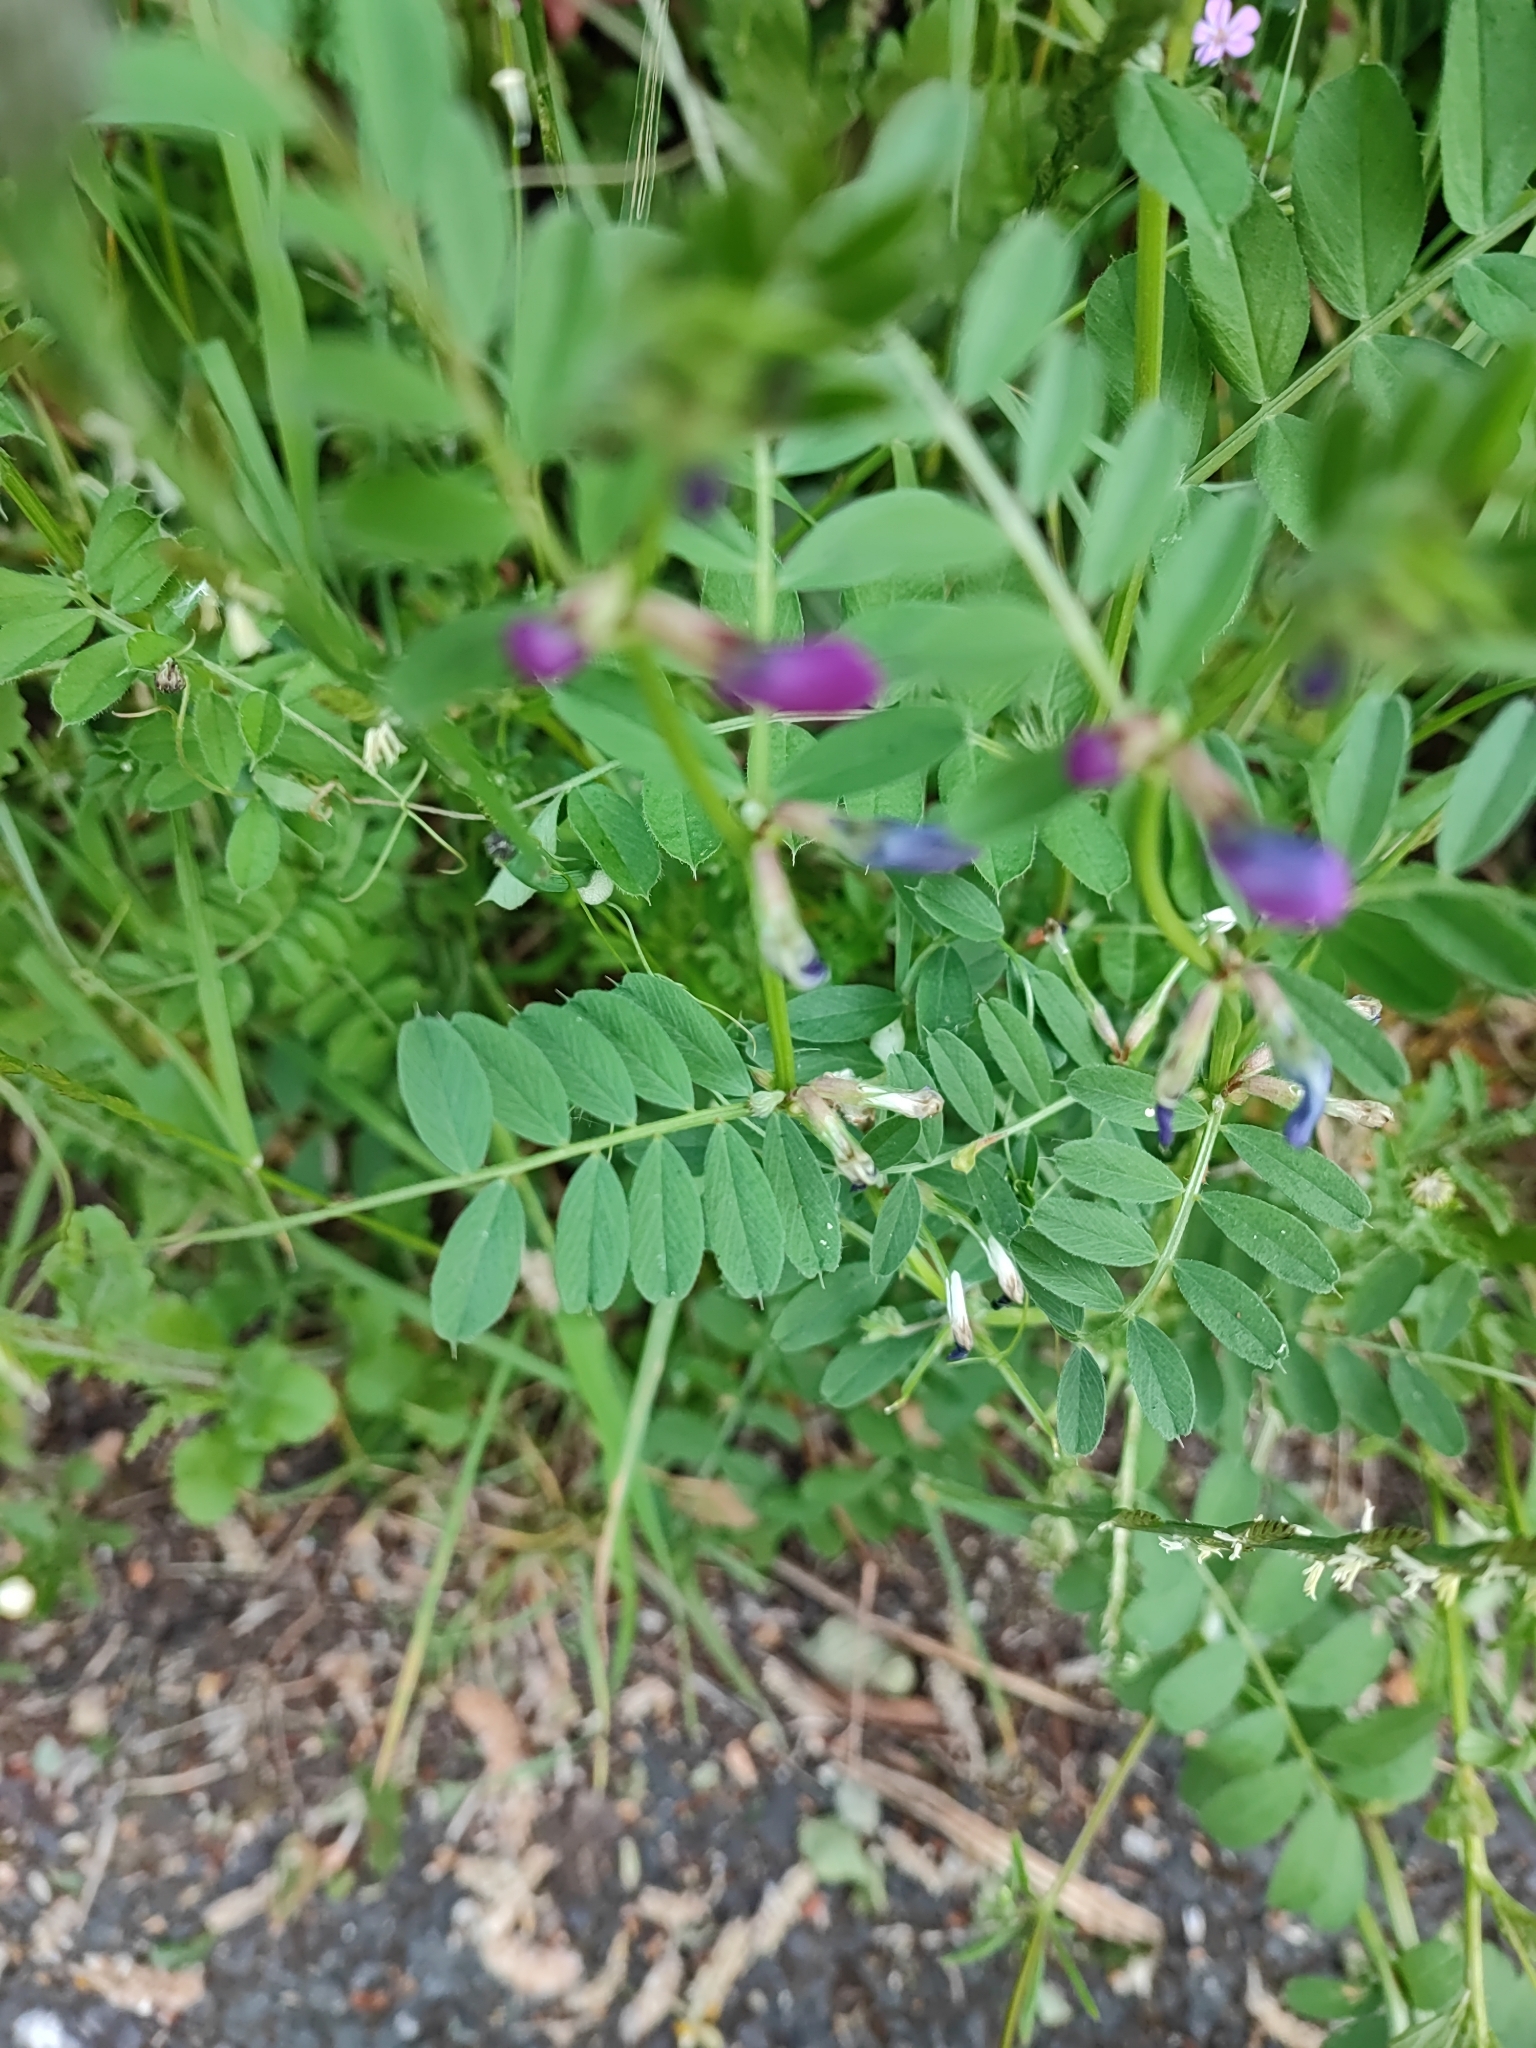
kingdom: Plantae
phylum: Tracheophyta
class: Magnoliopsida
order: Fabales
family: Fabaceae
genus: Vicia
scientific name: Vicia sativa
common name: Garden vetch
